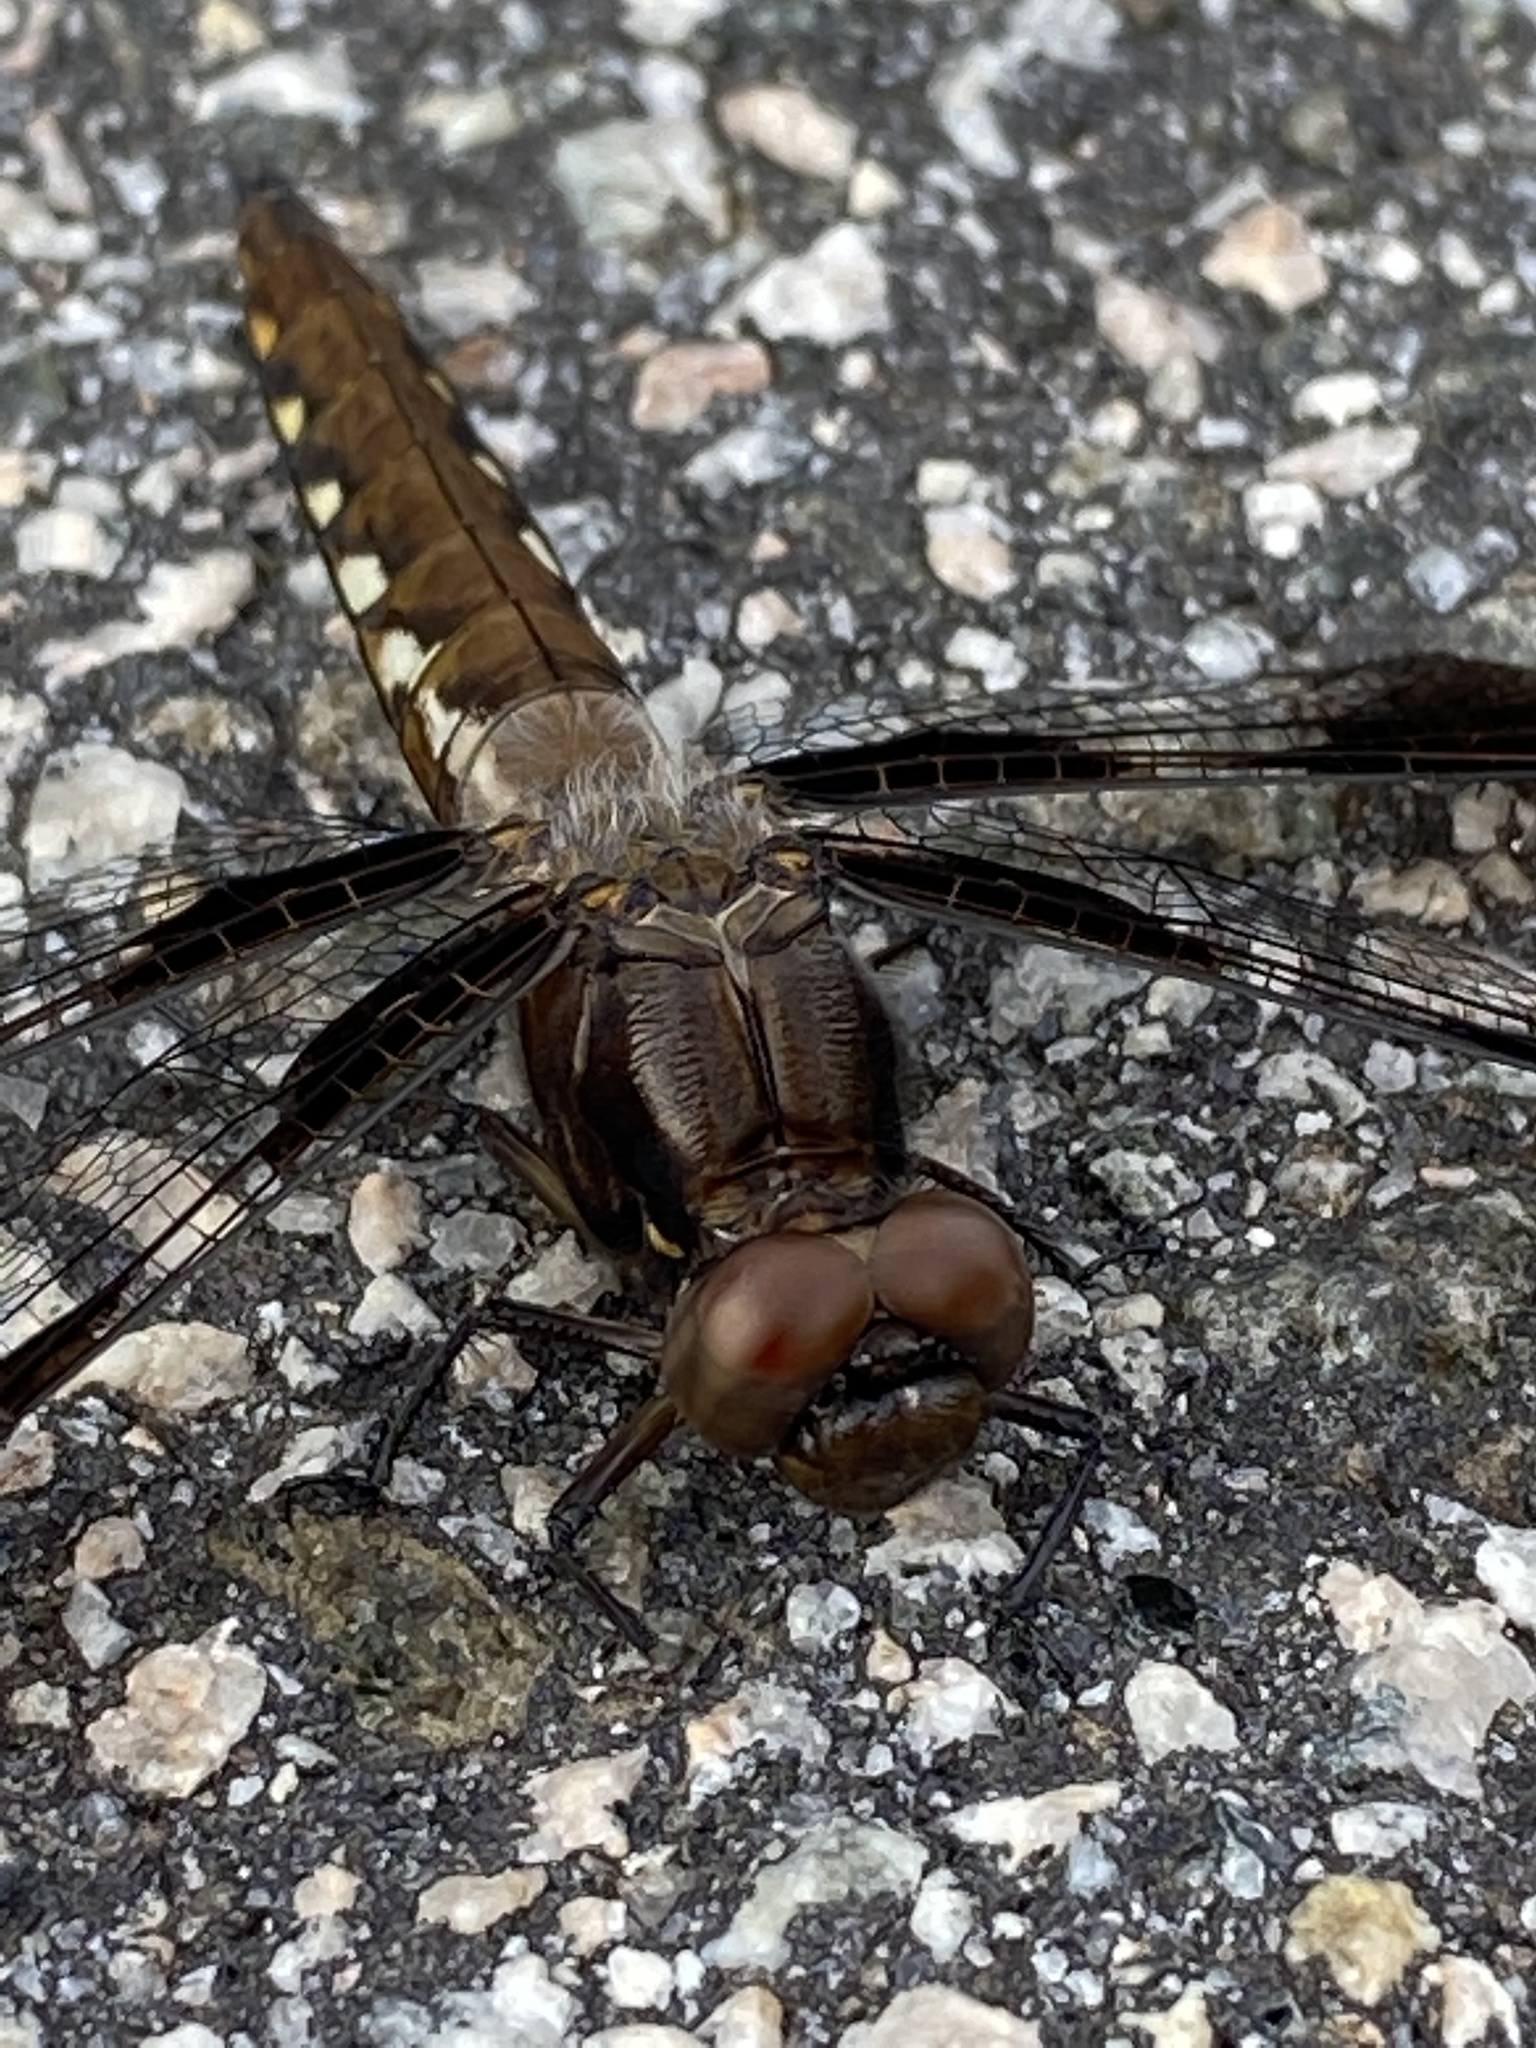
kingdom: Animalia
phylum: Arthropoda
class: Insecta
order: Odonata
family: Libellulidae
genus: Plathemis
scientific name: Plathemis lydia
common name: Common whitetail
